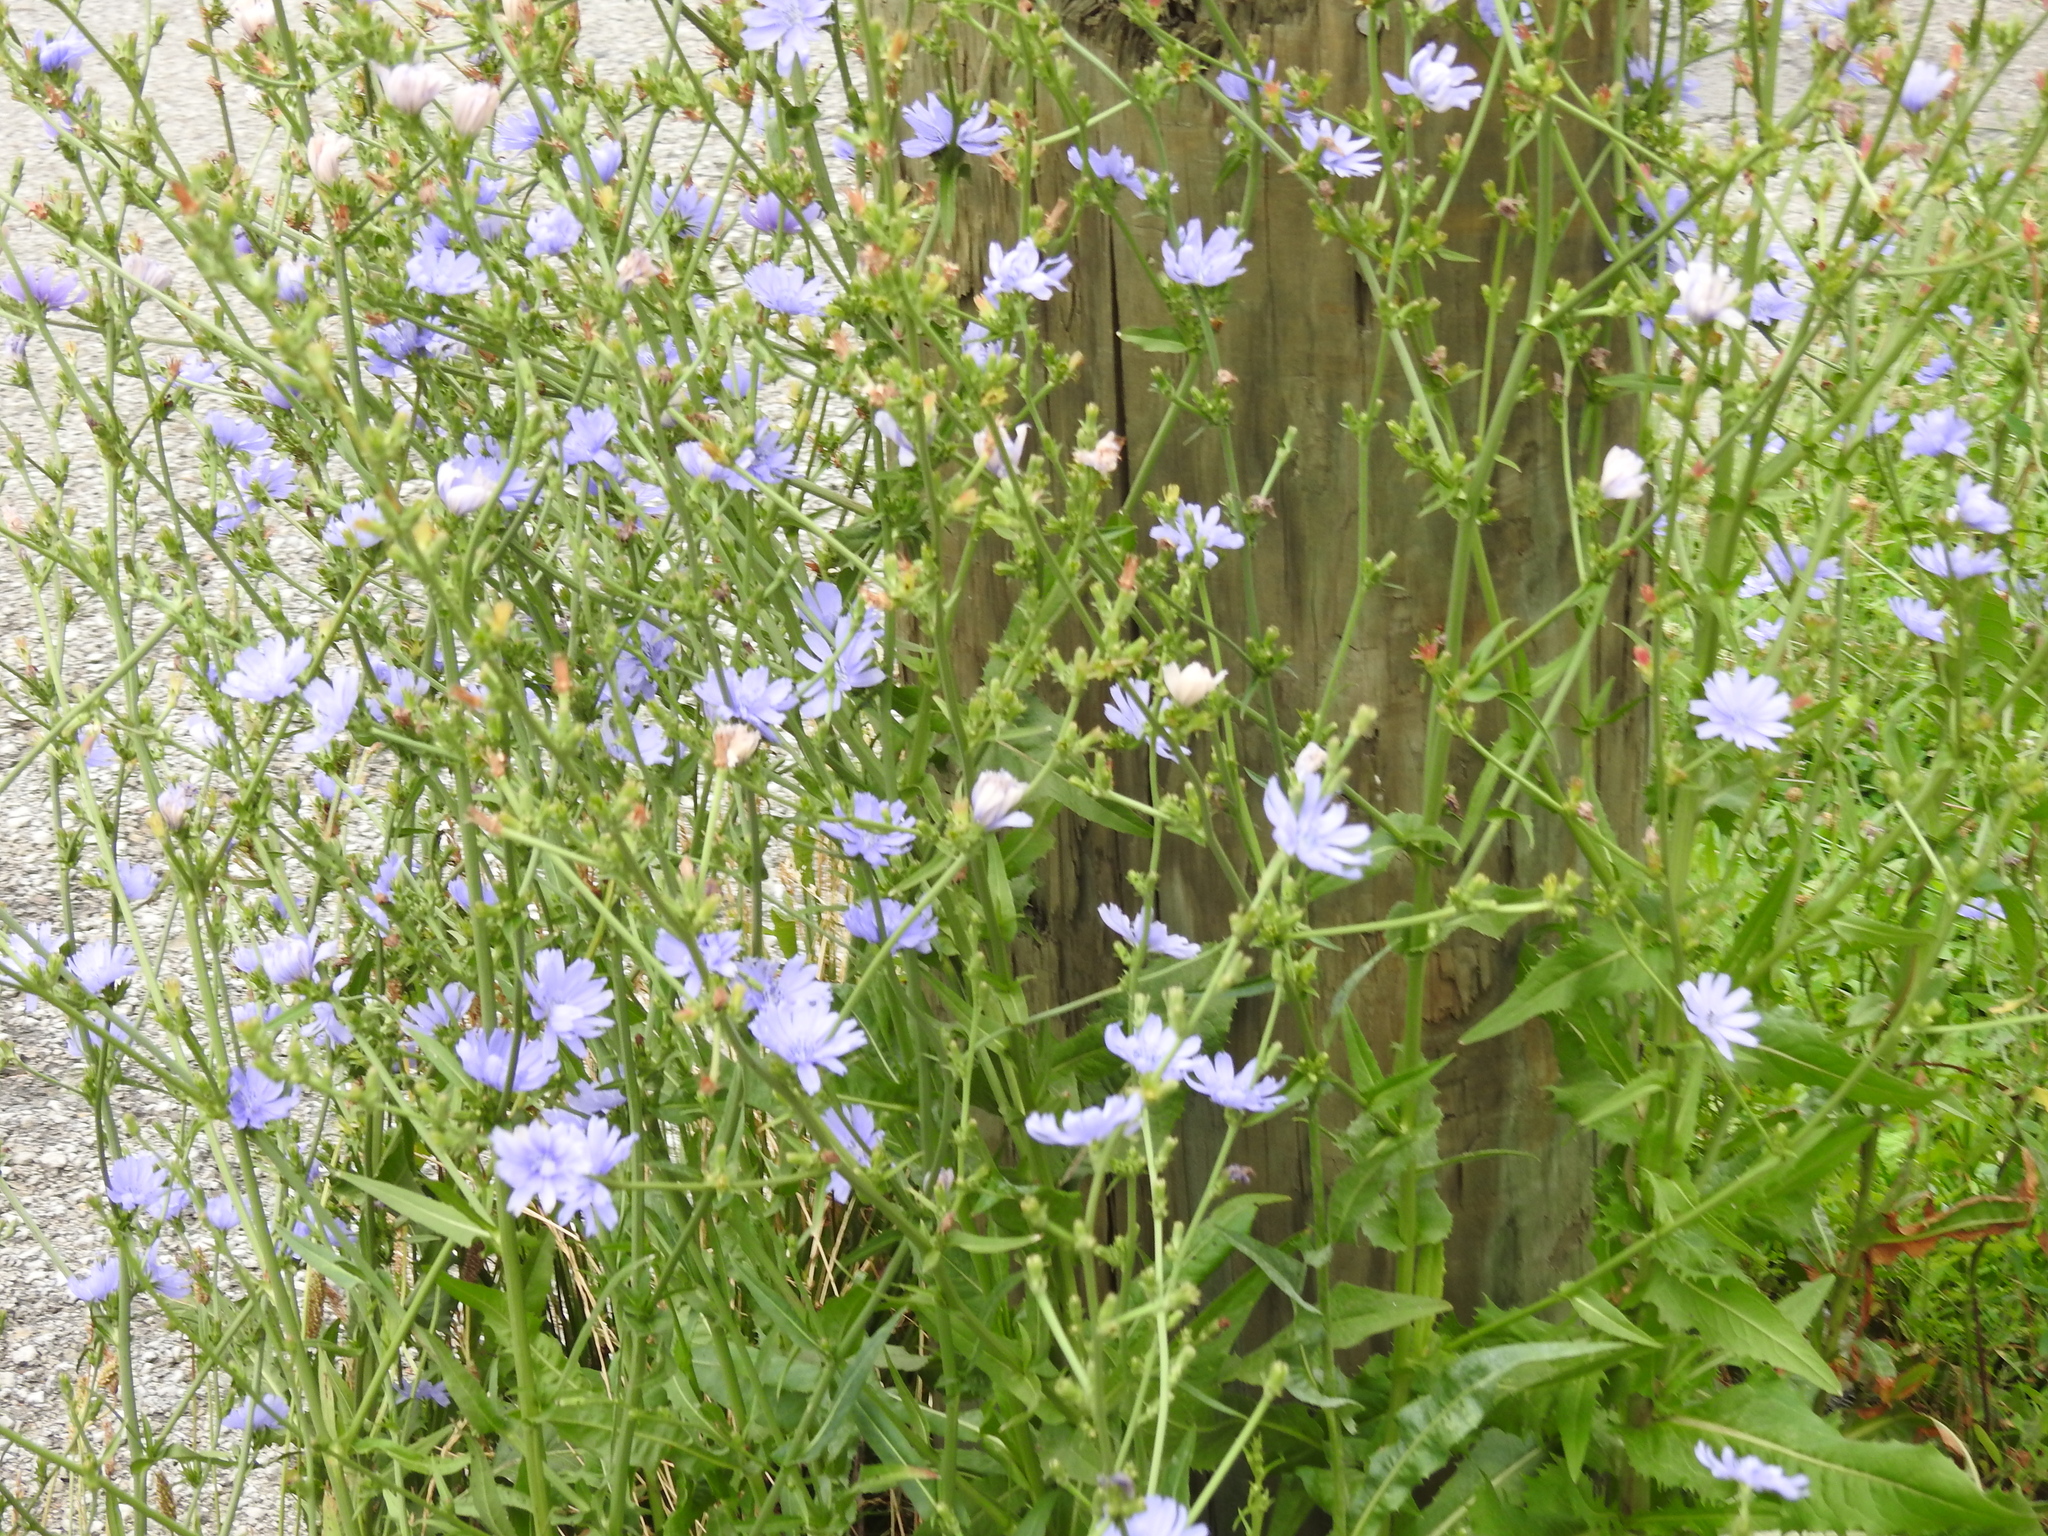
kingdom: Plantae
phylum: Tracheophyta
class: Magnoliopsida
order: Asterales
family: Asteraceae
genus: Cichorium
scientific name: Cichorium intybus
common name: Chicory
